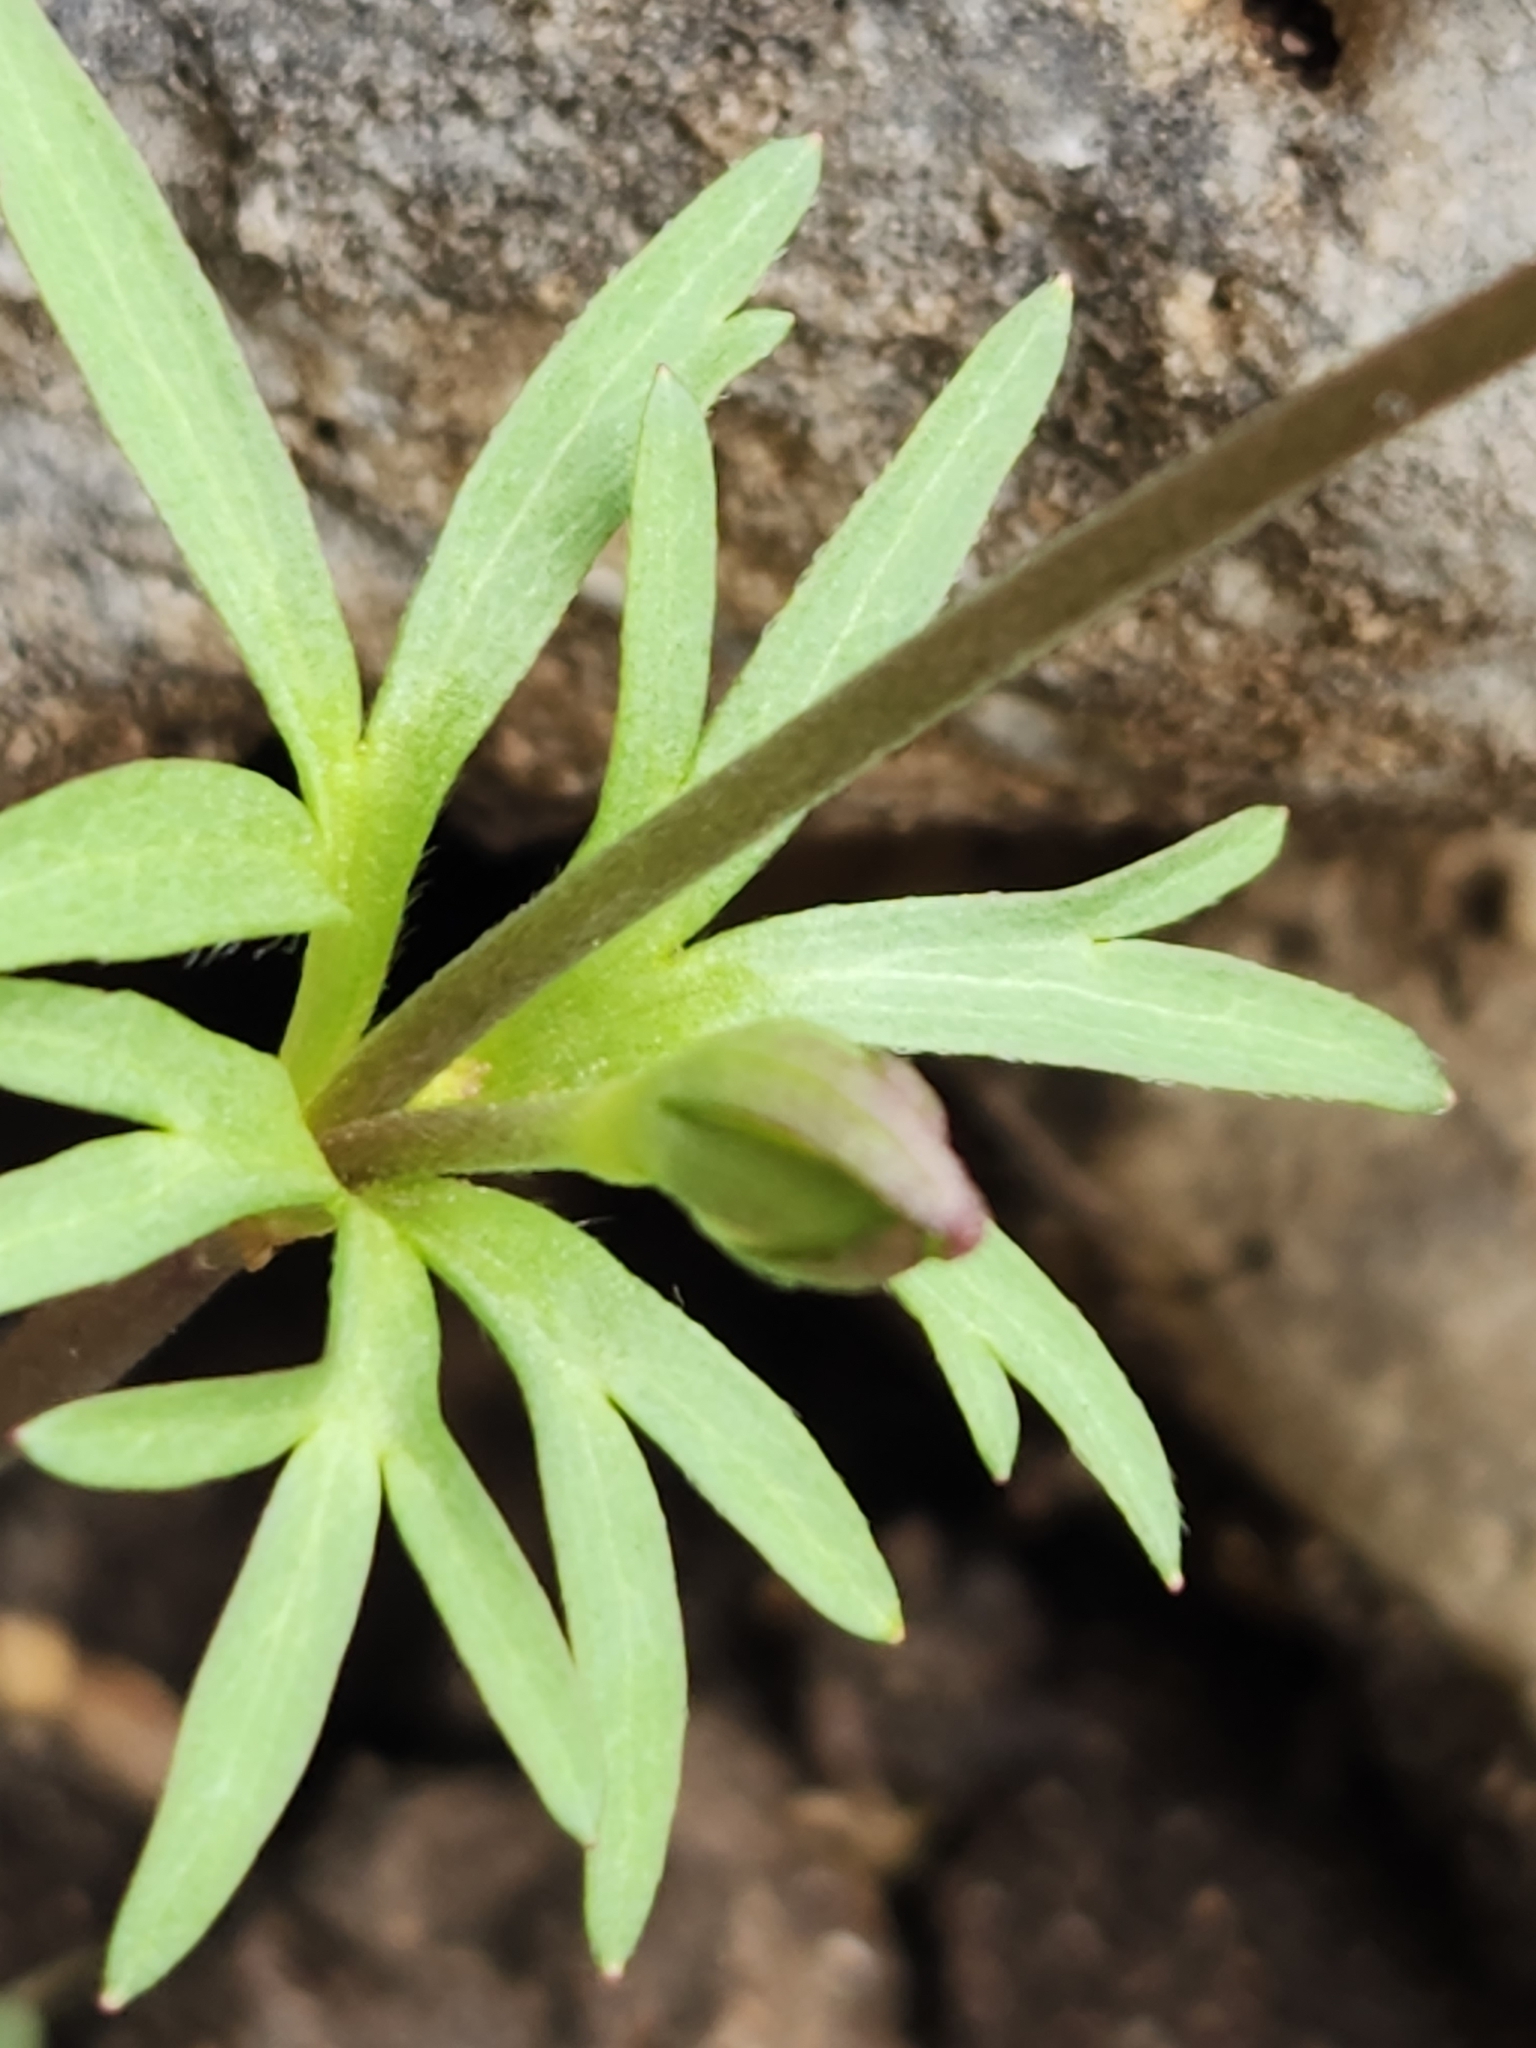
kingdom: Plantae
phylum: Tracheophyta
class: Magnoliopsida
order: Ranunculales
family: Ranunculaceae
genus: Anemone
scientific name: Anemone edwardsiana
